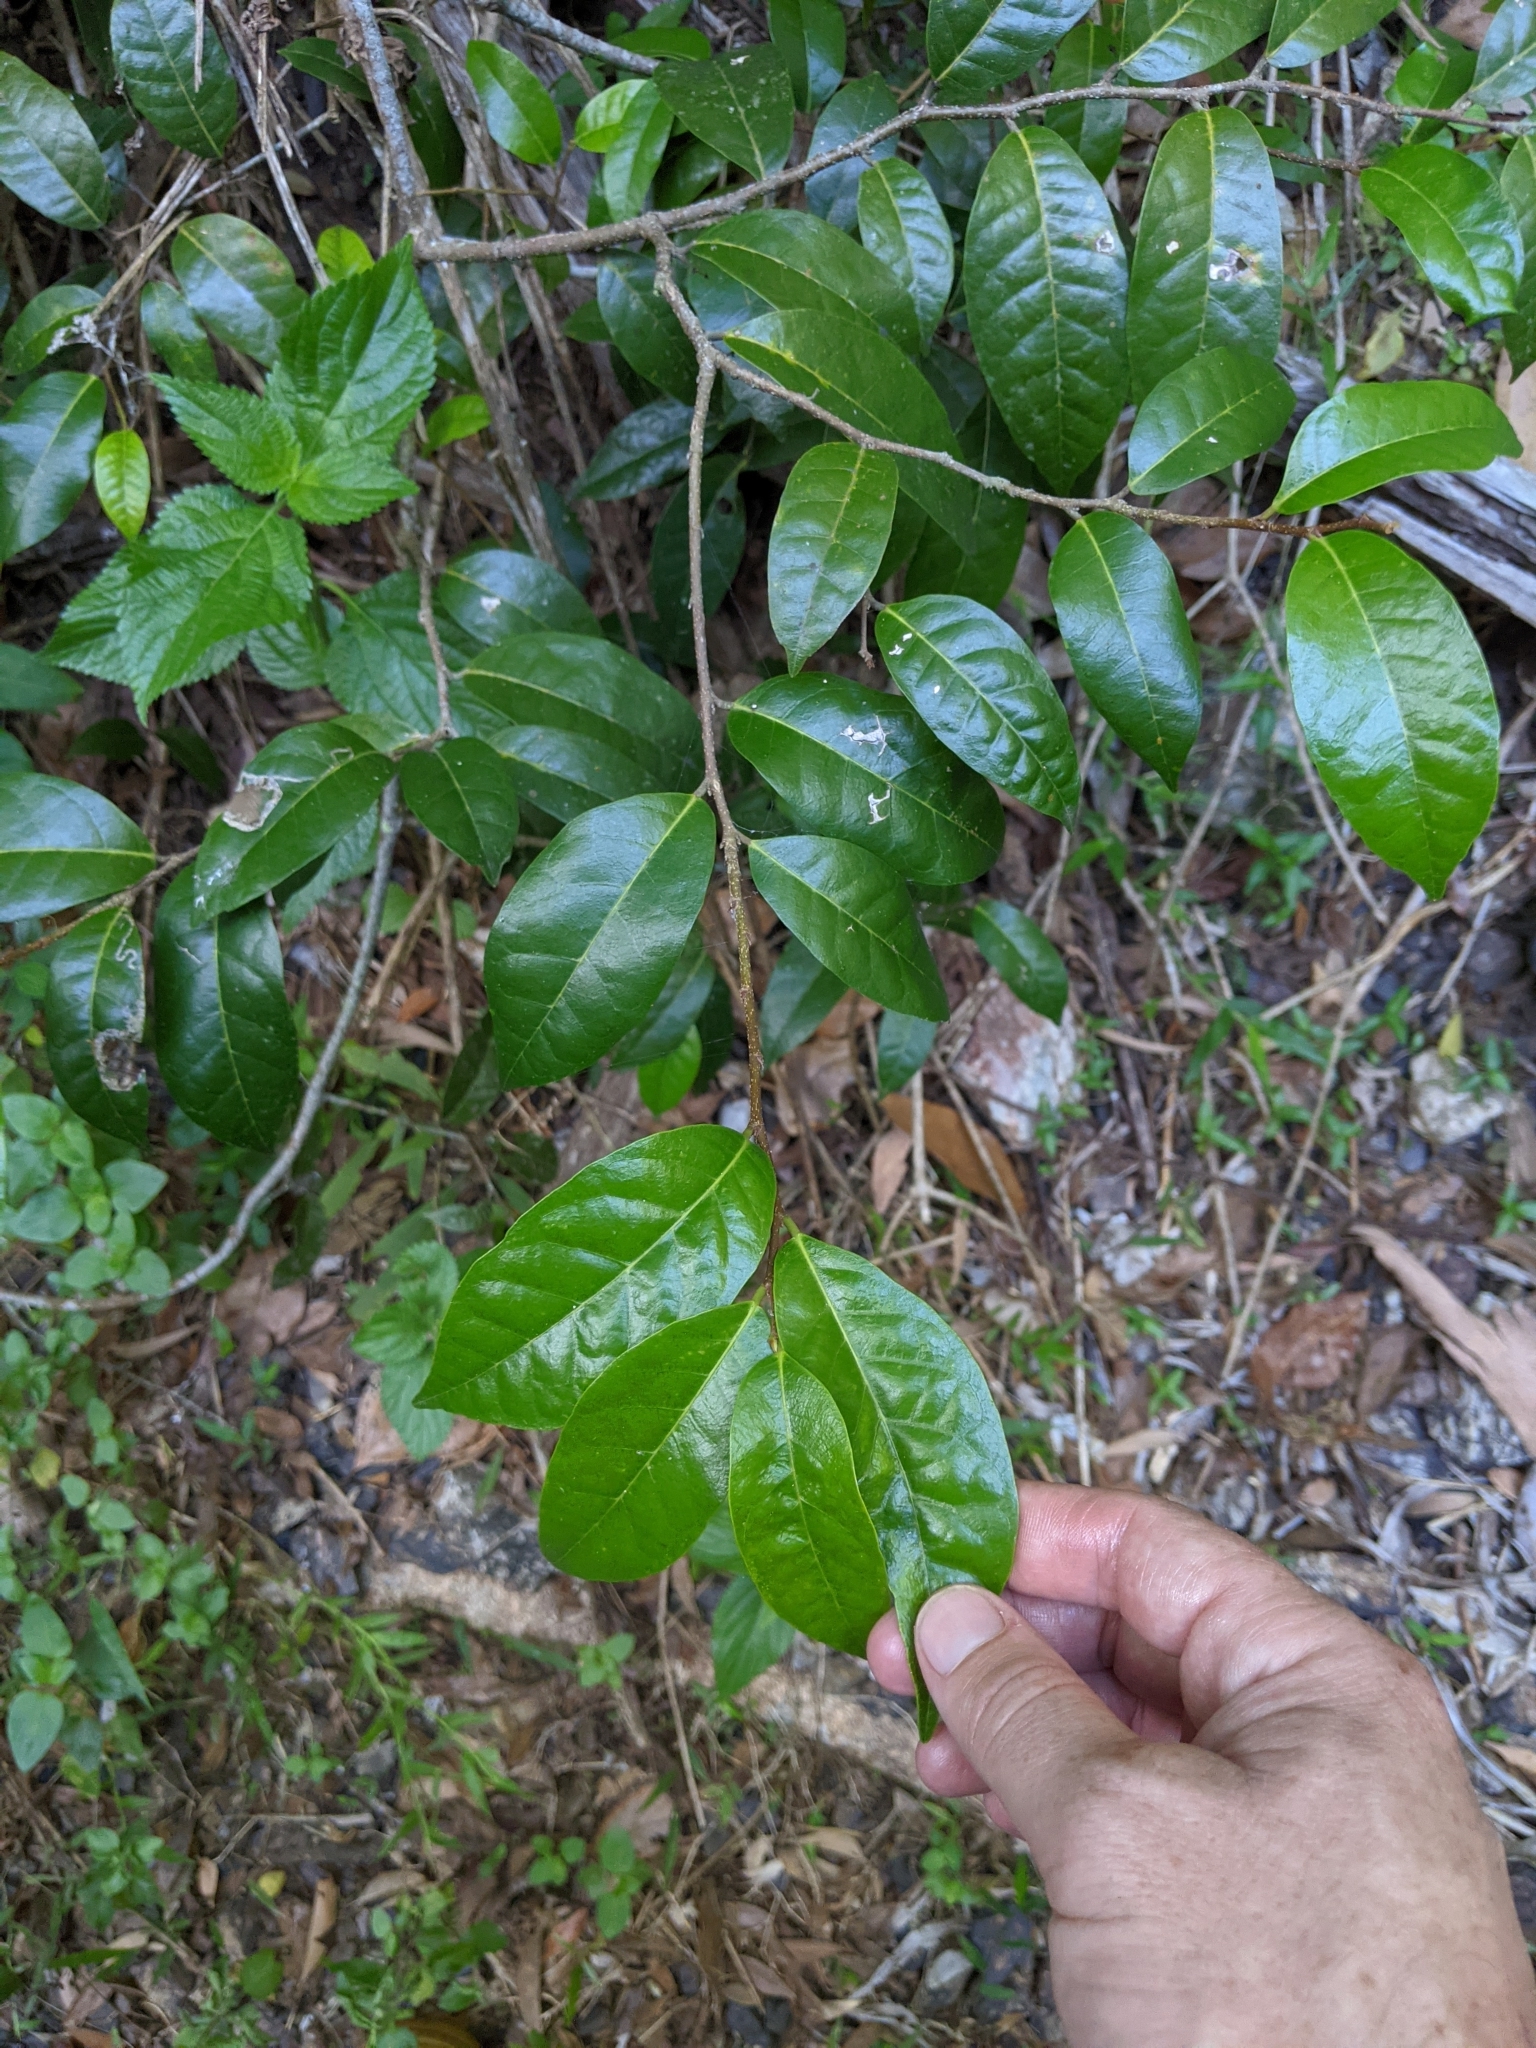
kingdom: Plantae
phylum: Tracheophyta
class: Magnoliopsida
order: Rosales
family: Moraceae
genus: Malaisia
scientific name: Malaisia scandens
